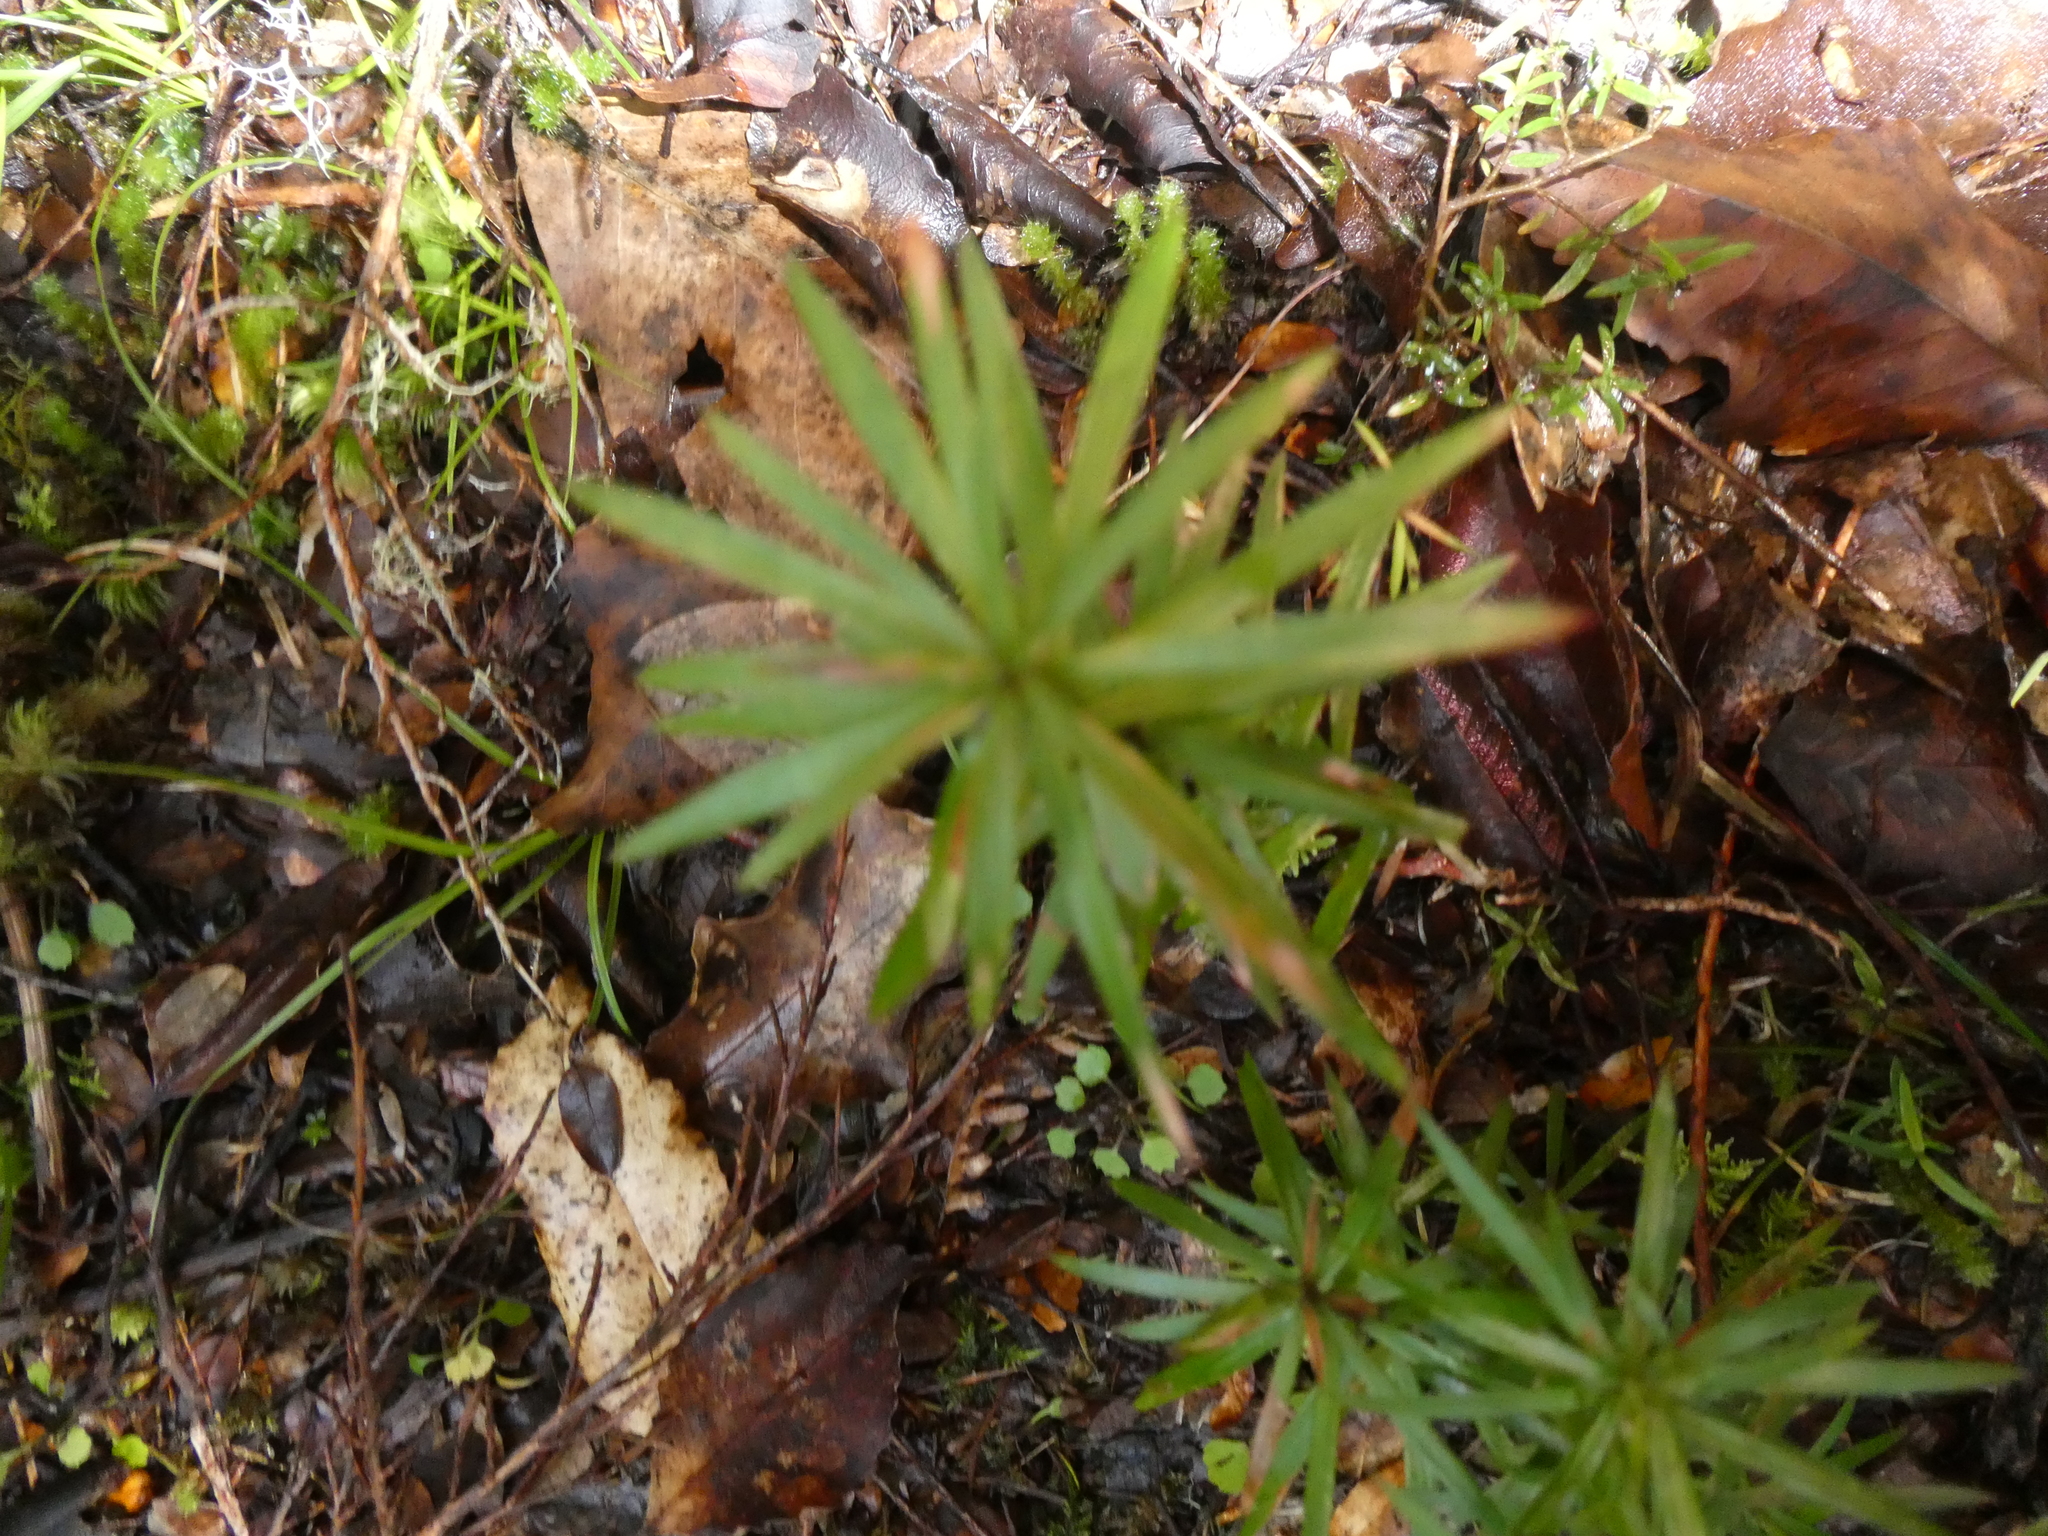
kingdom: Plantae
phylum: Tracheophyta
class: Magnoliopsida
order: Ericales
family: Ericaceae
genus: Leucopogon
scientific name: Leucopogon fasciculatus
